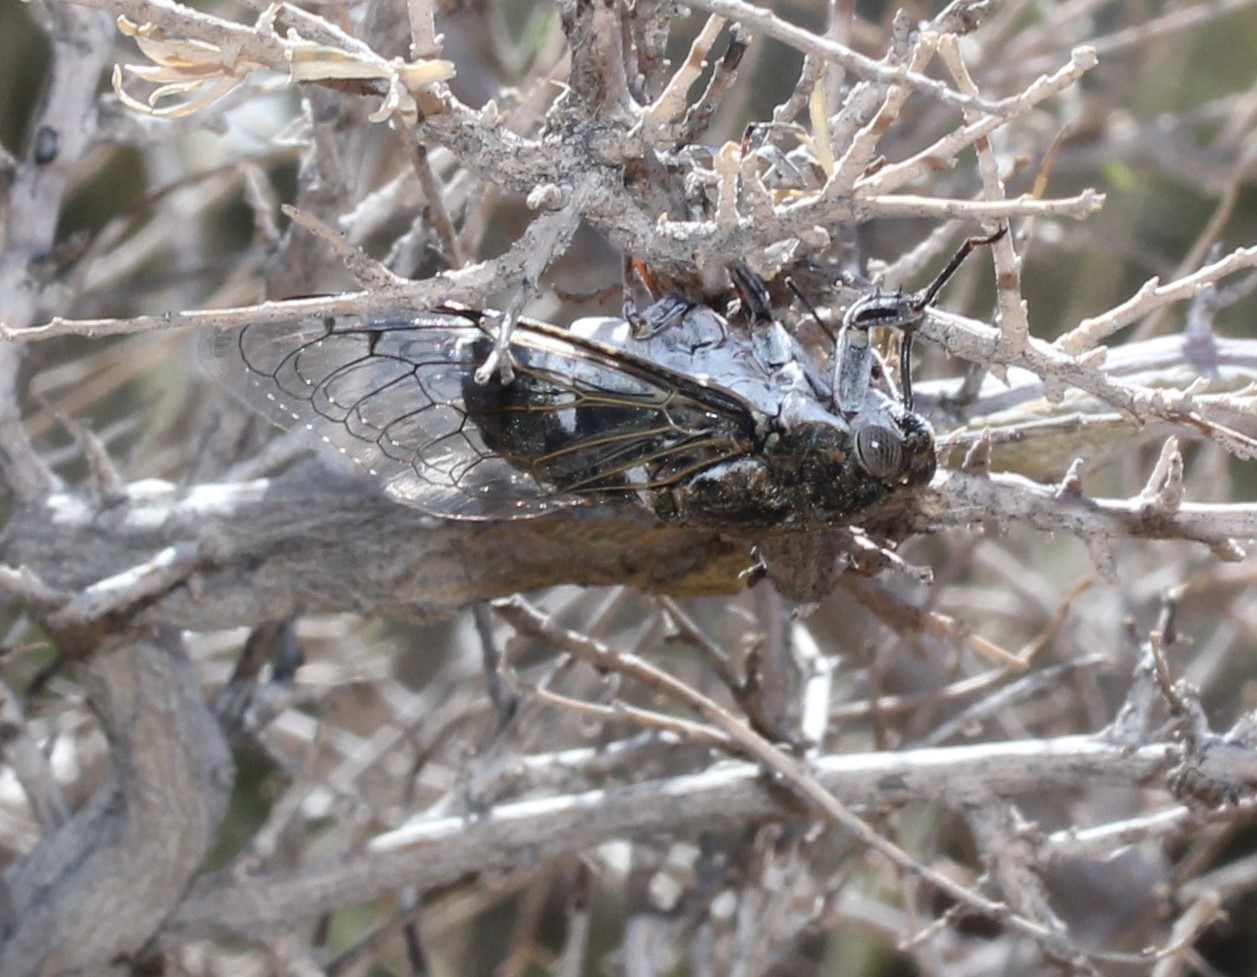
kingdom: Animalia
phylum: Arthropoda
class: Insecta
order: Hemiptera
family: Cicadidae
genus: Cacama
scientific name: Cacama valvata
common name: Cactus dodger
